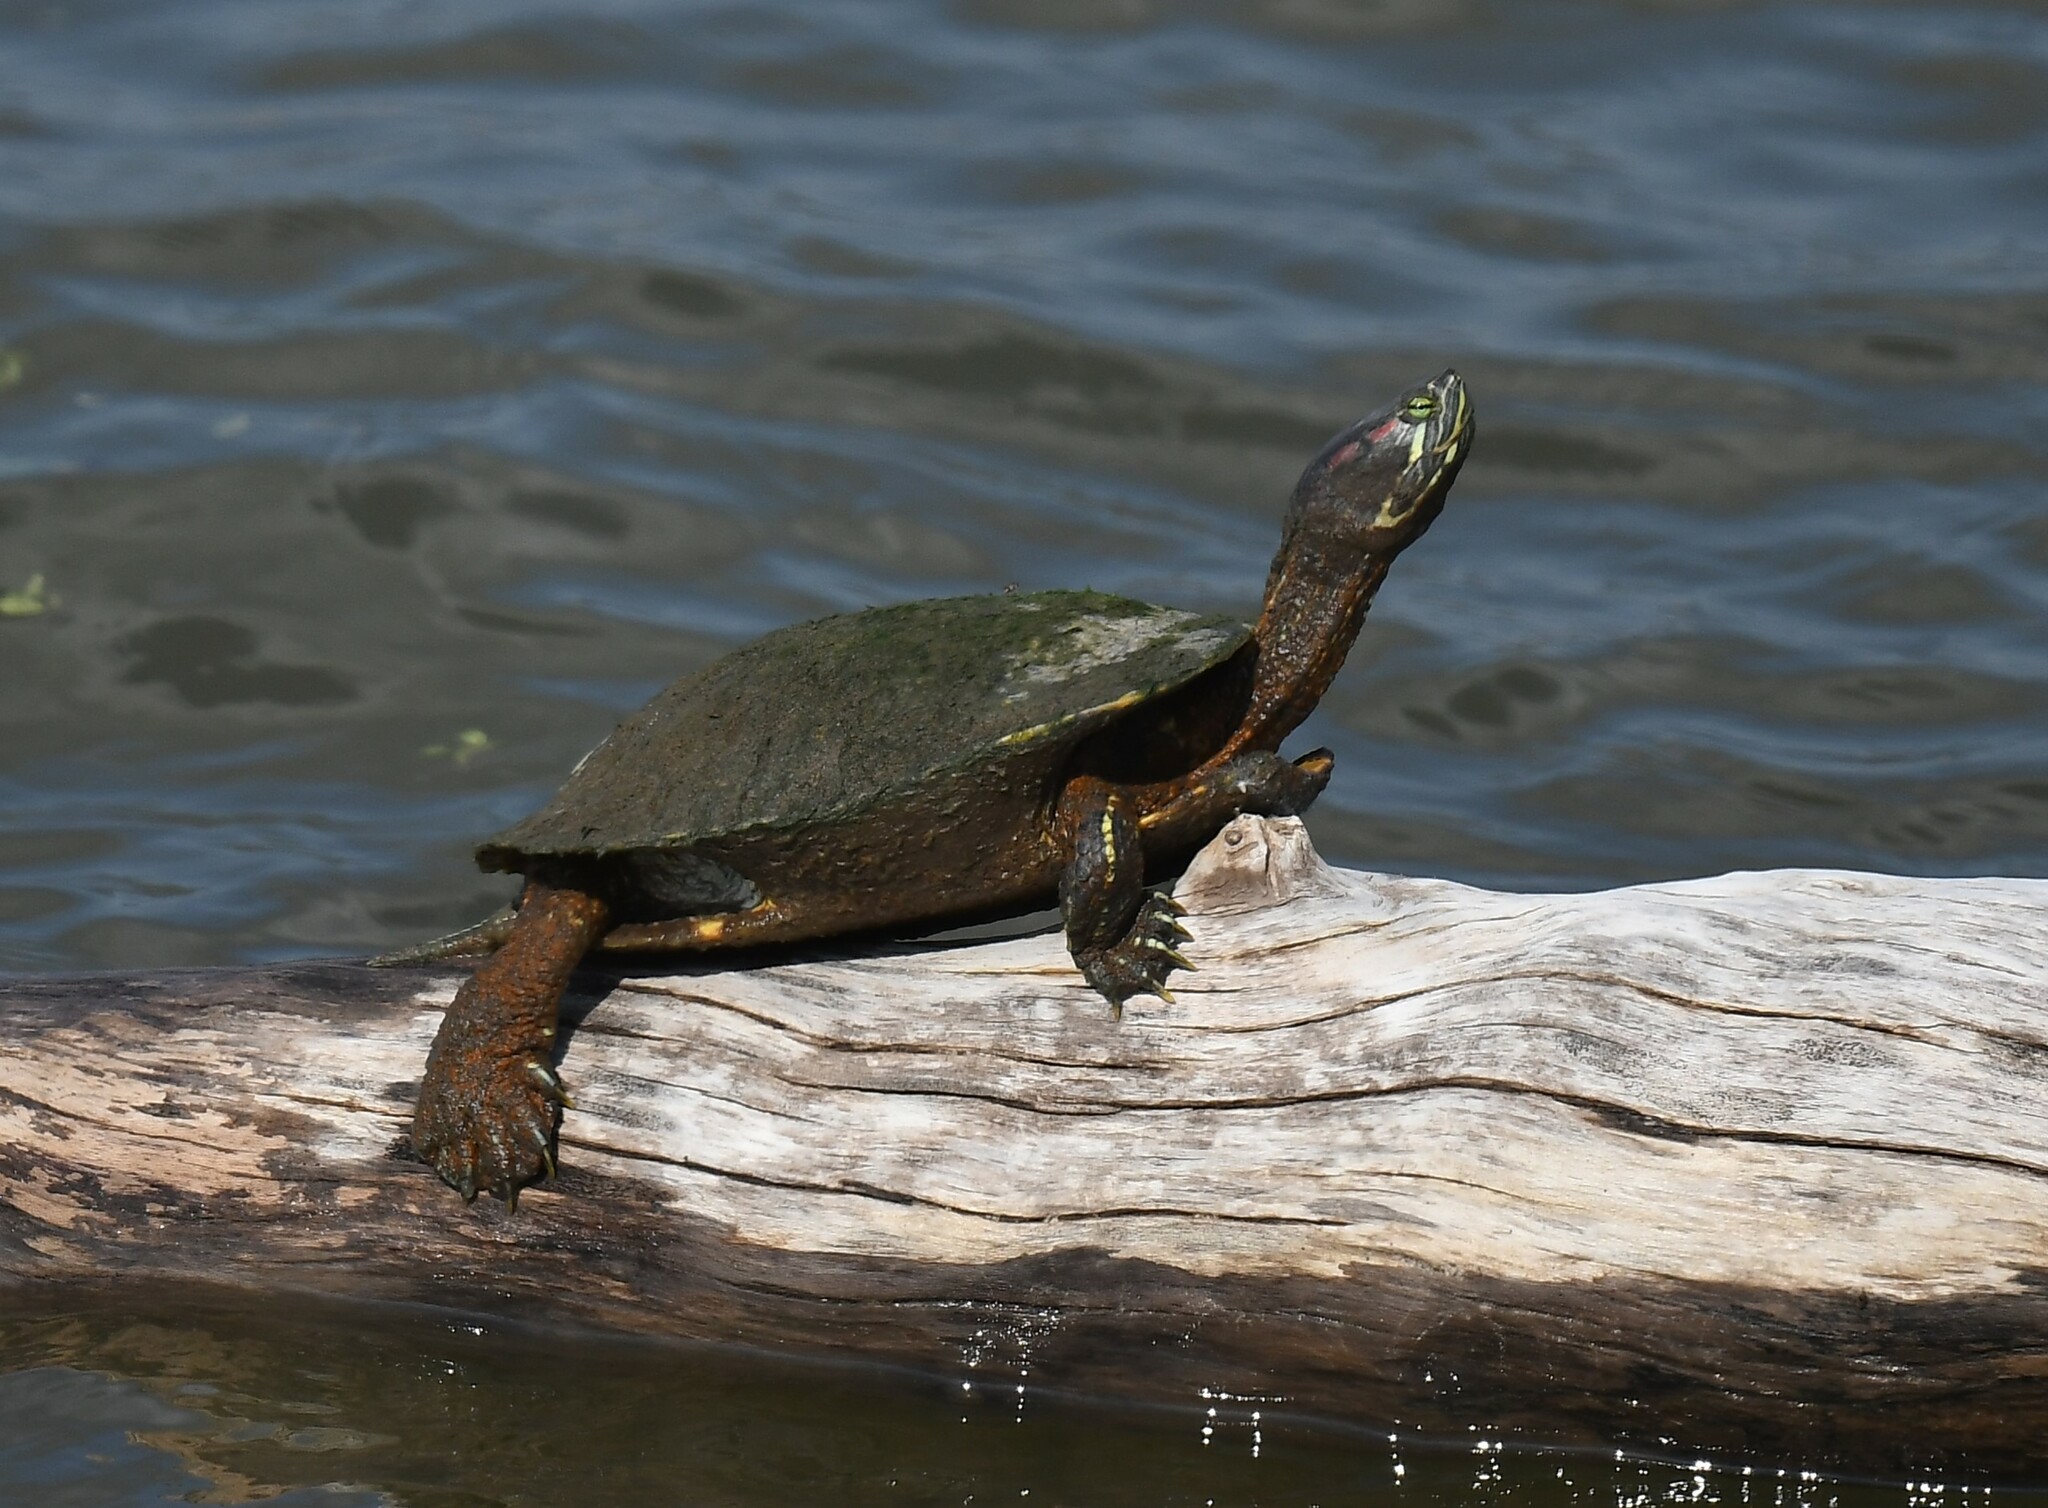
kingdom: Animalia
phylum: Chordata
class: Testudines
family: Emydidae
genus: Trachemys
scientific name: Trachemys scripta
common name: Slider
